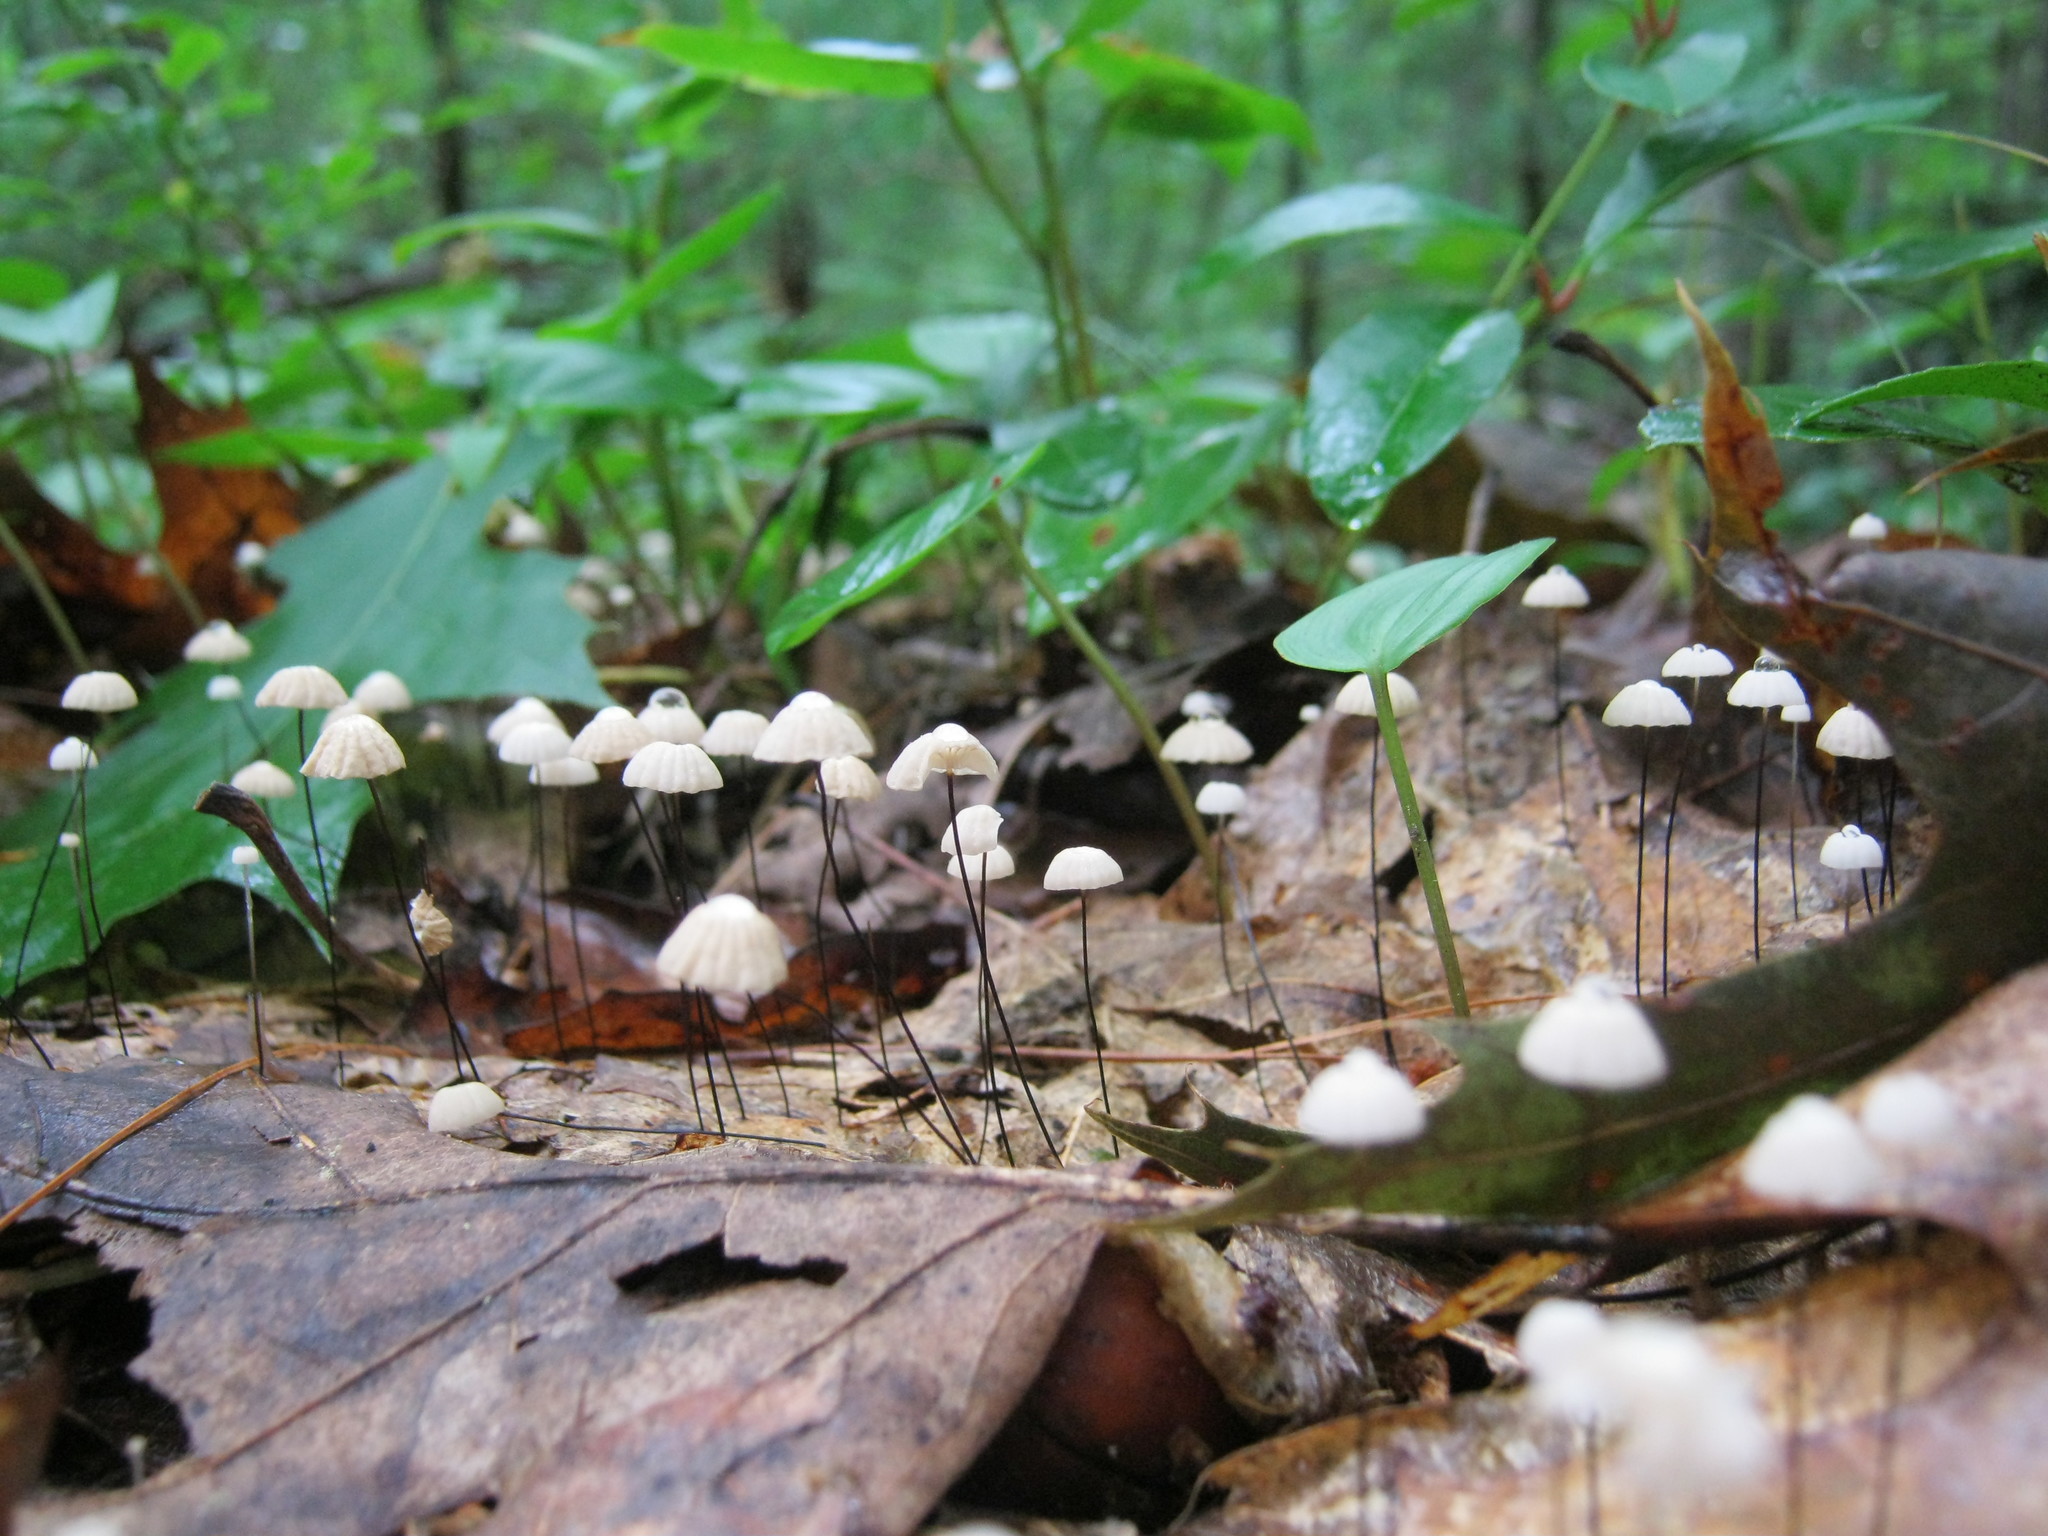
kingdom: Fungi
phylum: Basidiomycota
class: Agaricomycetes
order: Agaricales
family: Marasmiaceae
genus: Marasmius
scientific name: Marasmius capillaris
